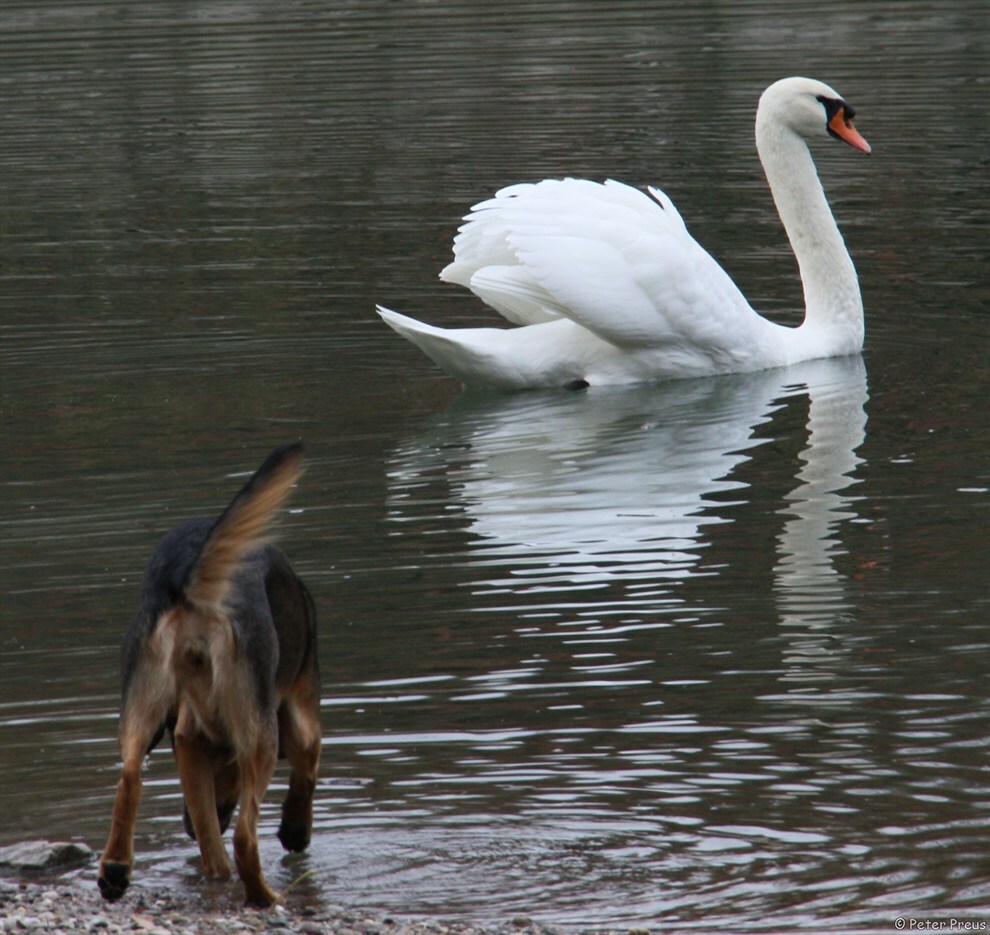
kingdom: Animalia
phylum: Chordata
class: Aves
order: Anseriformes
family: Anatidae
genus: Cygnus
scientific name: Cygnus olor
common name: Mute swan
